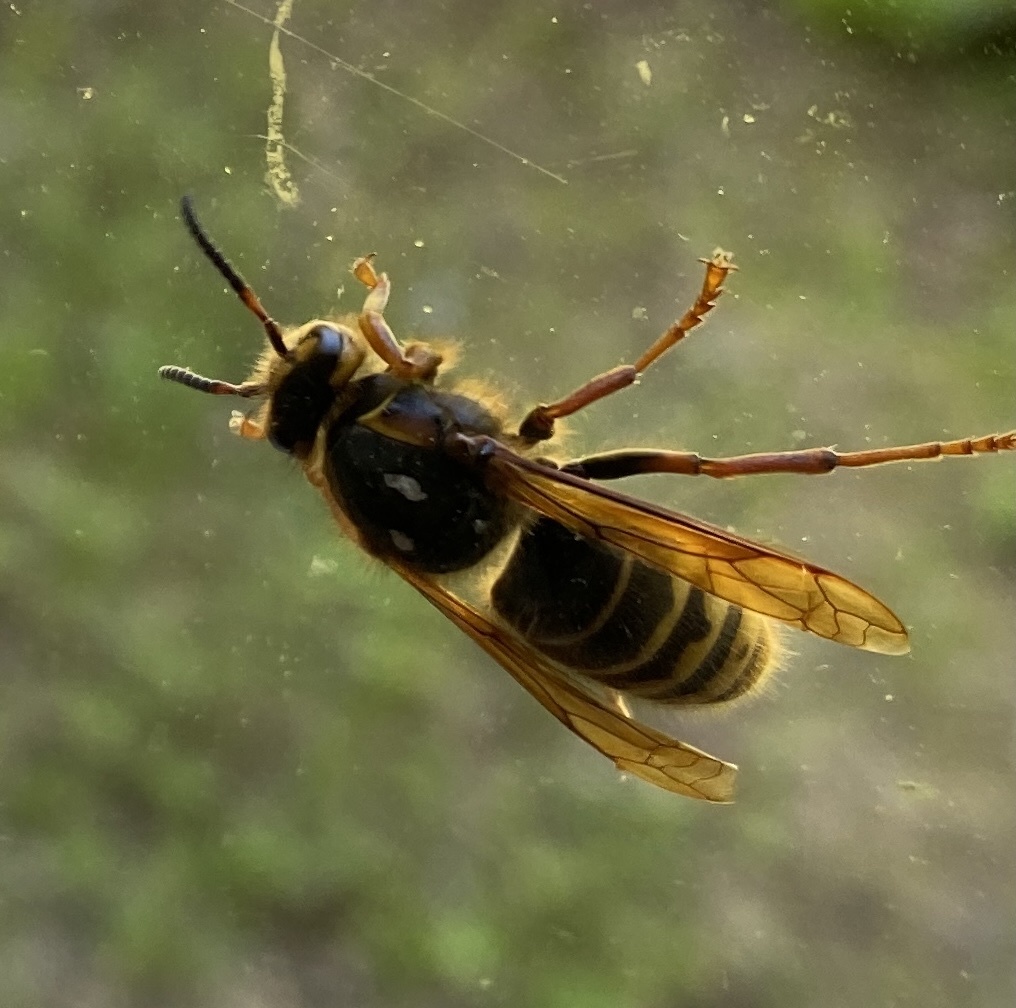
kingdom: Animalia
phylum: Arthropoda
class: Insecta
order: Hymenoptera
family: Vespidae
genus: Dolichovespula
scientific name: Dolichovespula media
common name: Median wasp
